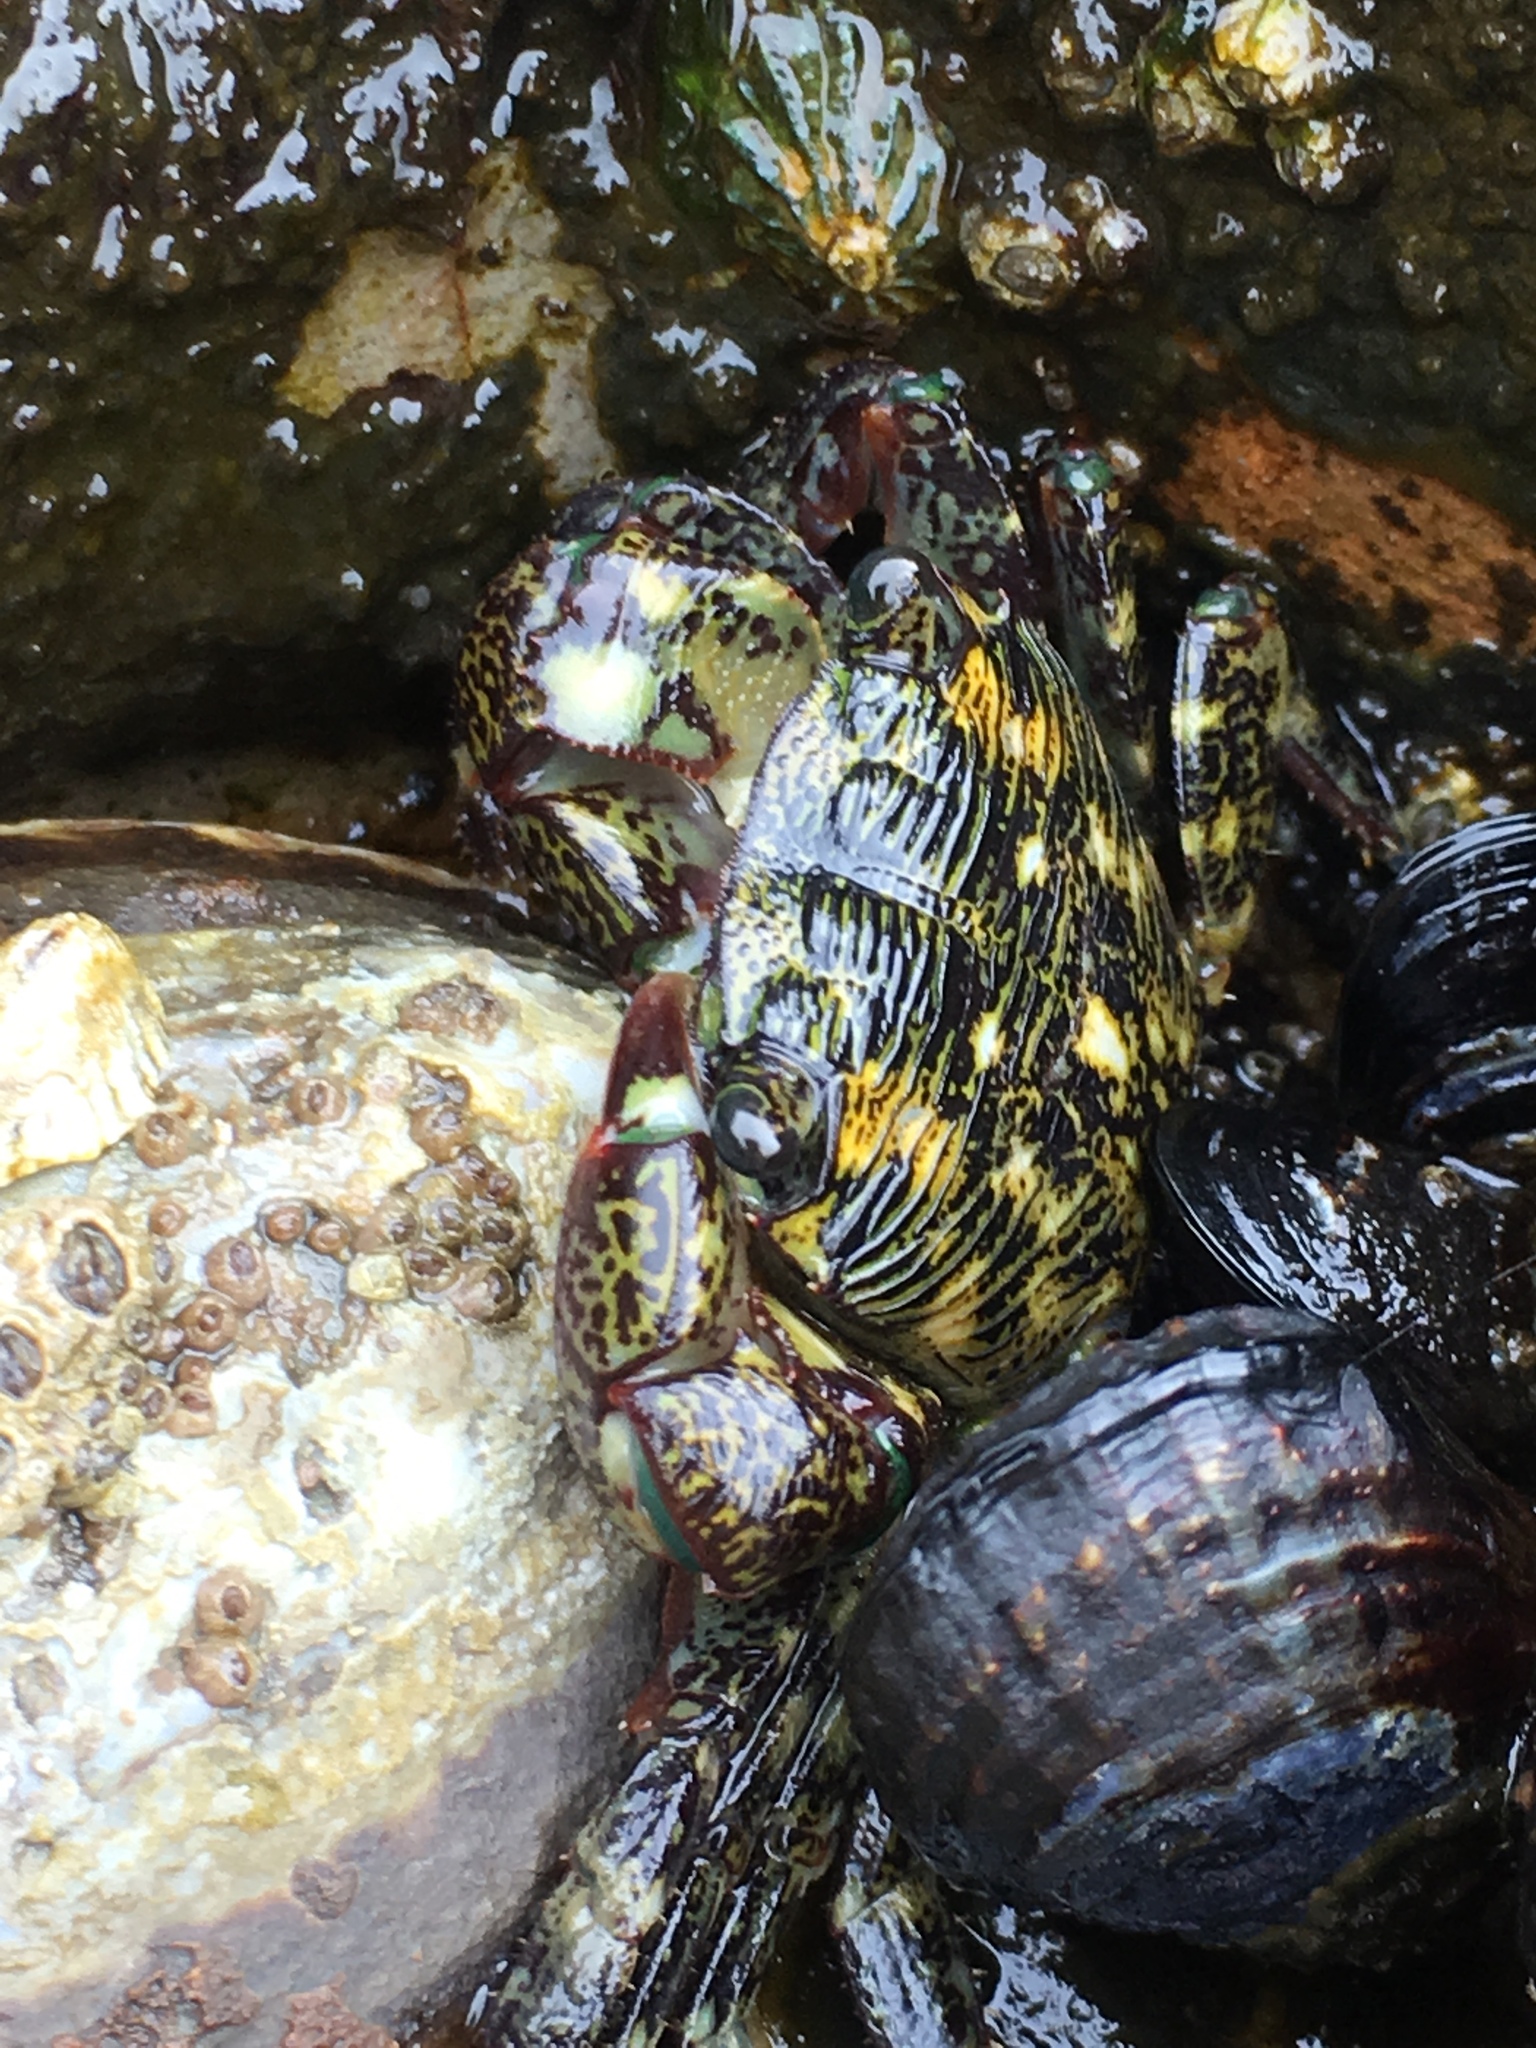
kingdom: Animalia
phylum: Arthropoda
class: Malacostraca
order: Decapoda
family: Grapsidae
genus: Pachygrapsus
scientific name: Pachygrapsus crassipes
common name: Striped shore crab
